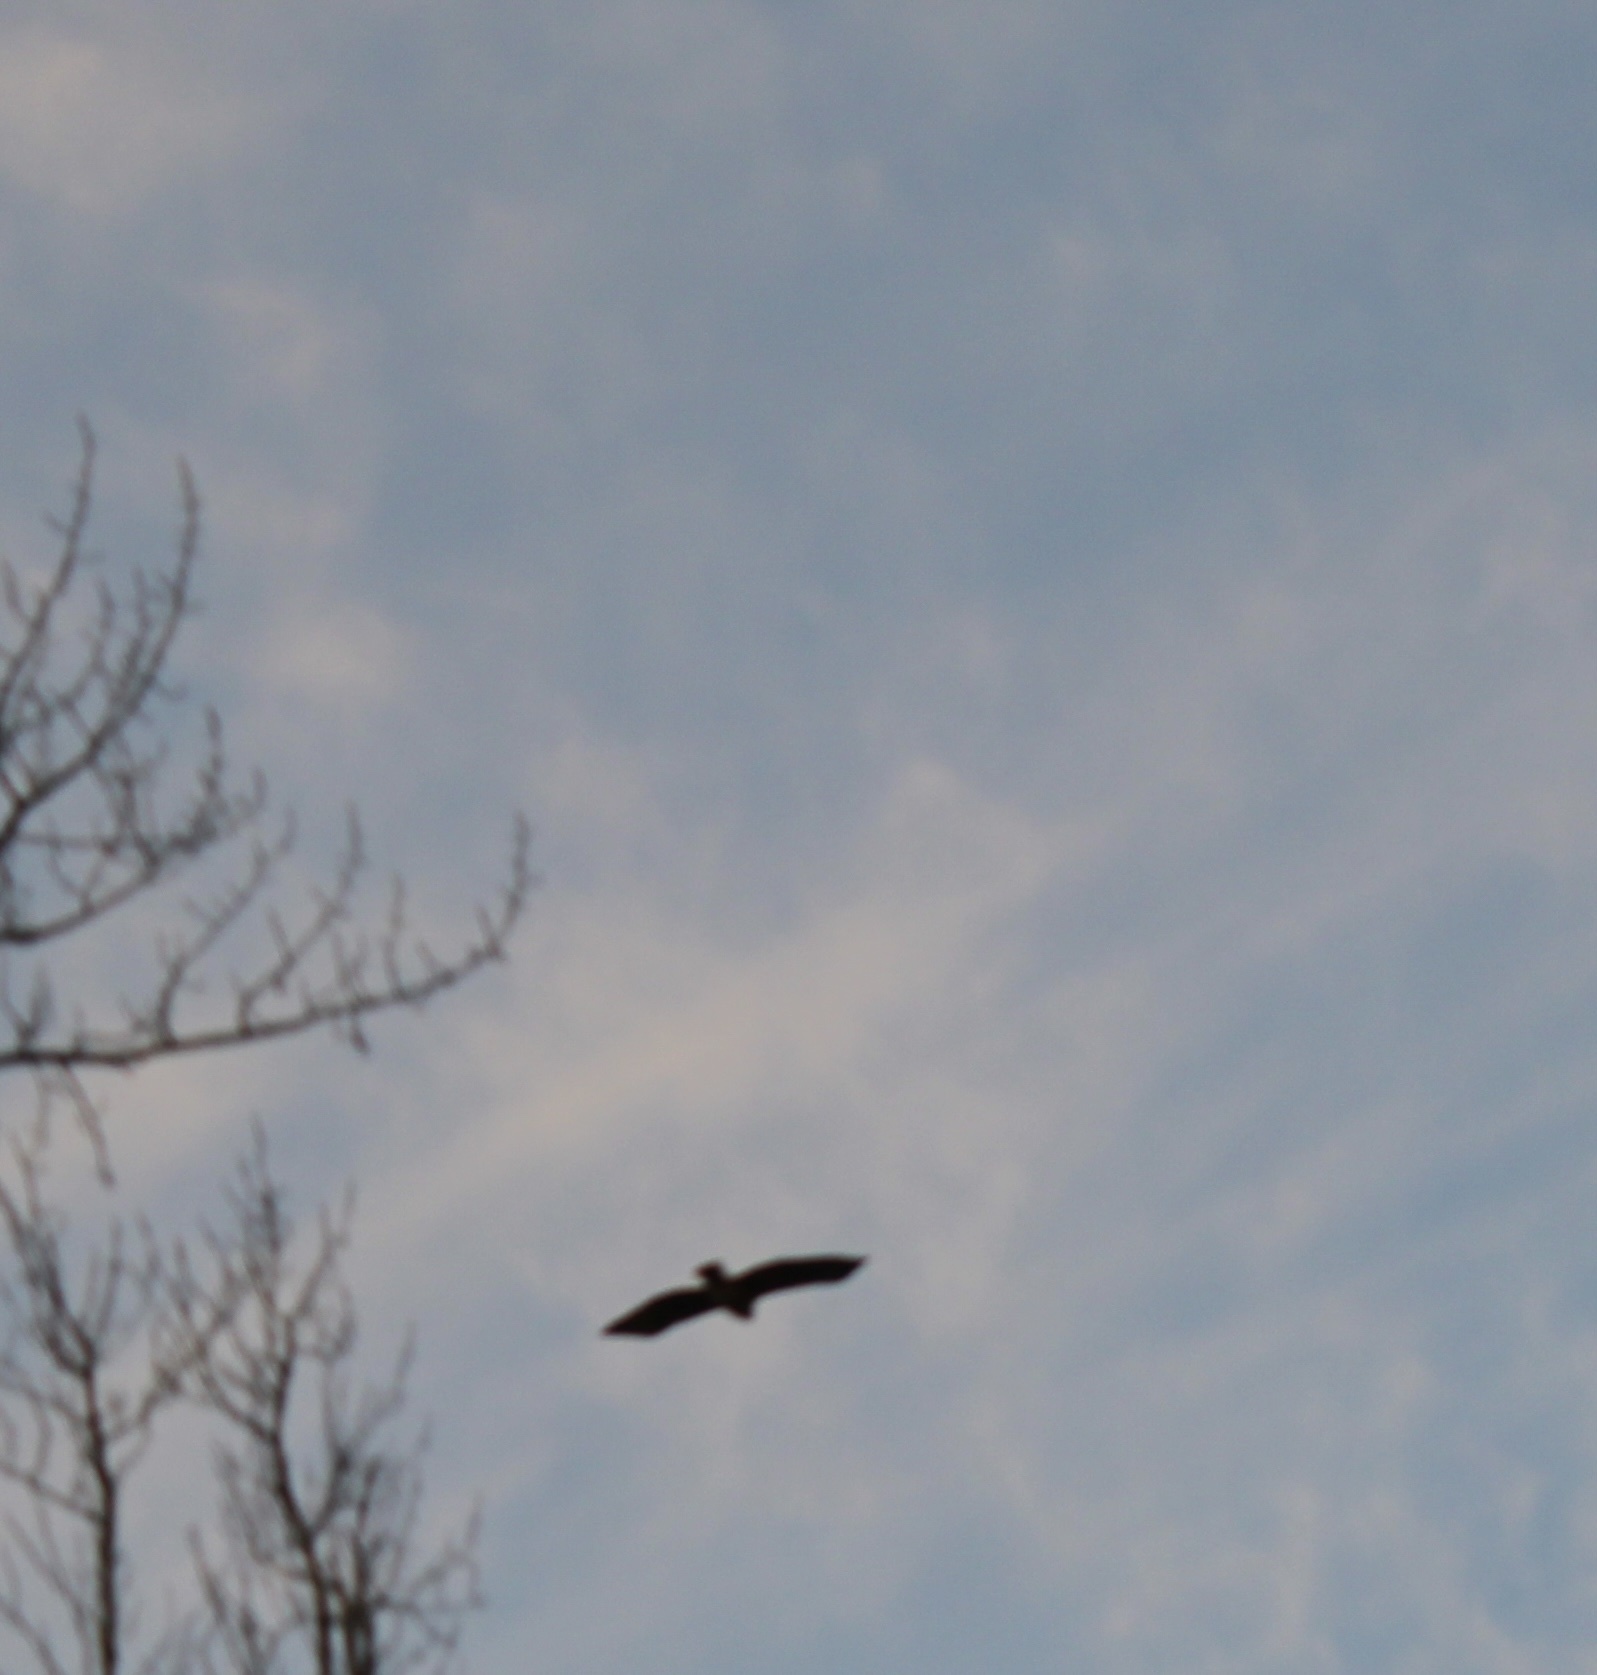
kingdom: Animalia
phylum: Chordata
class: Aves
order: Accipitriformes
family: Accipitridae
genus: Buteo
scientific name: Buteo jamaicensis
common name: Red-tailed hawk
